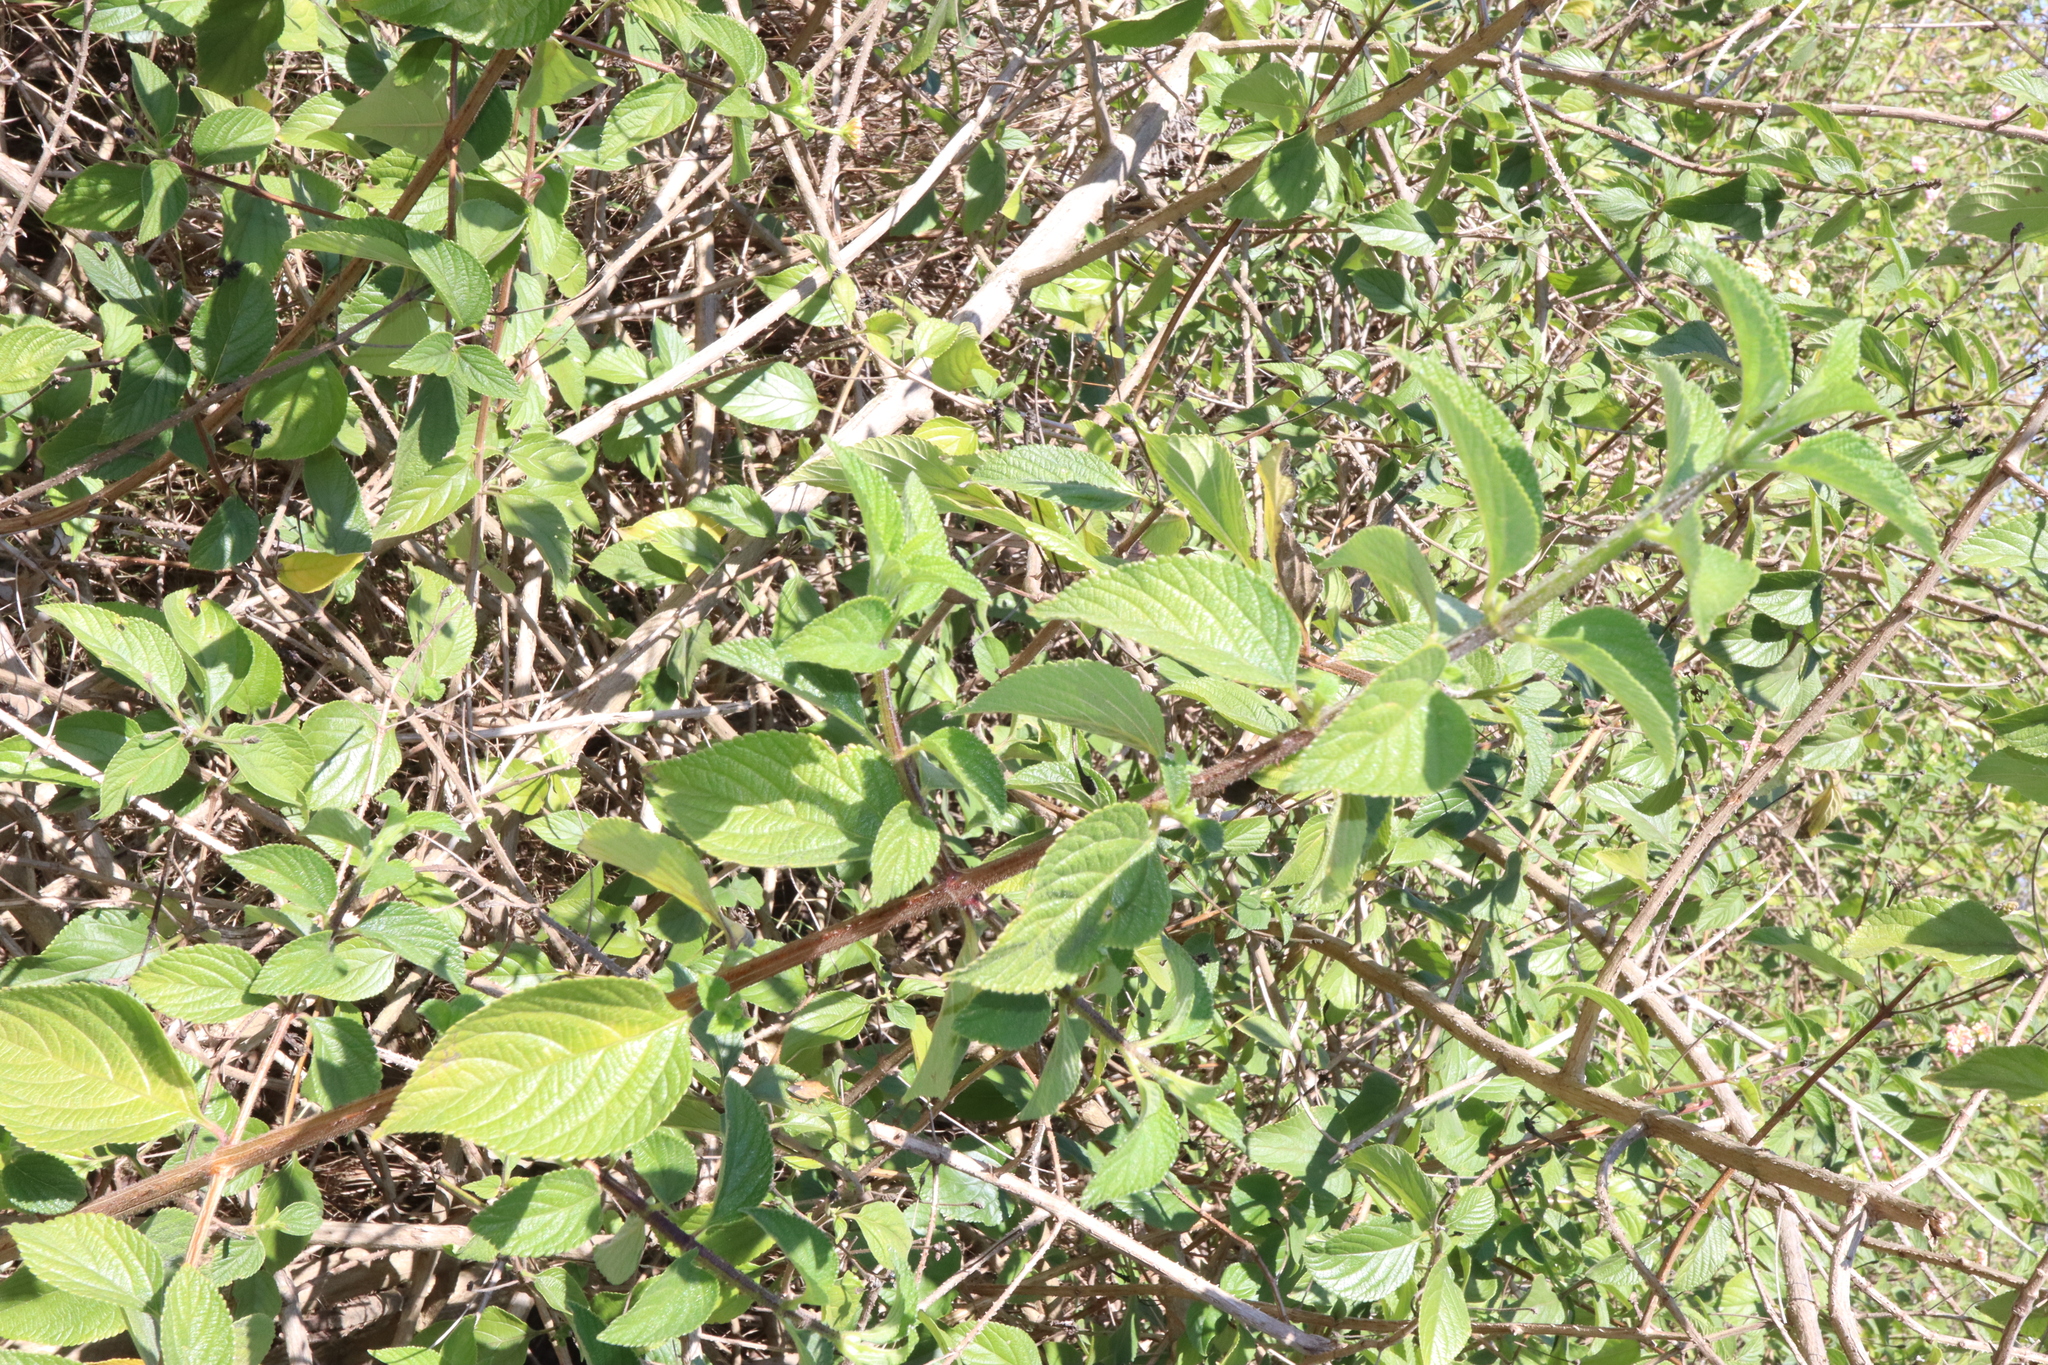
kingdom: Plantae
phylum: Tracheophyta
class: Magnoliopsida
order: Lamiales
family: Verbenaceae
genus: Lantana
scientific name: Lantana camara
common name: Lantana
